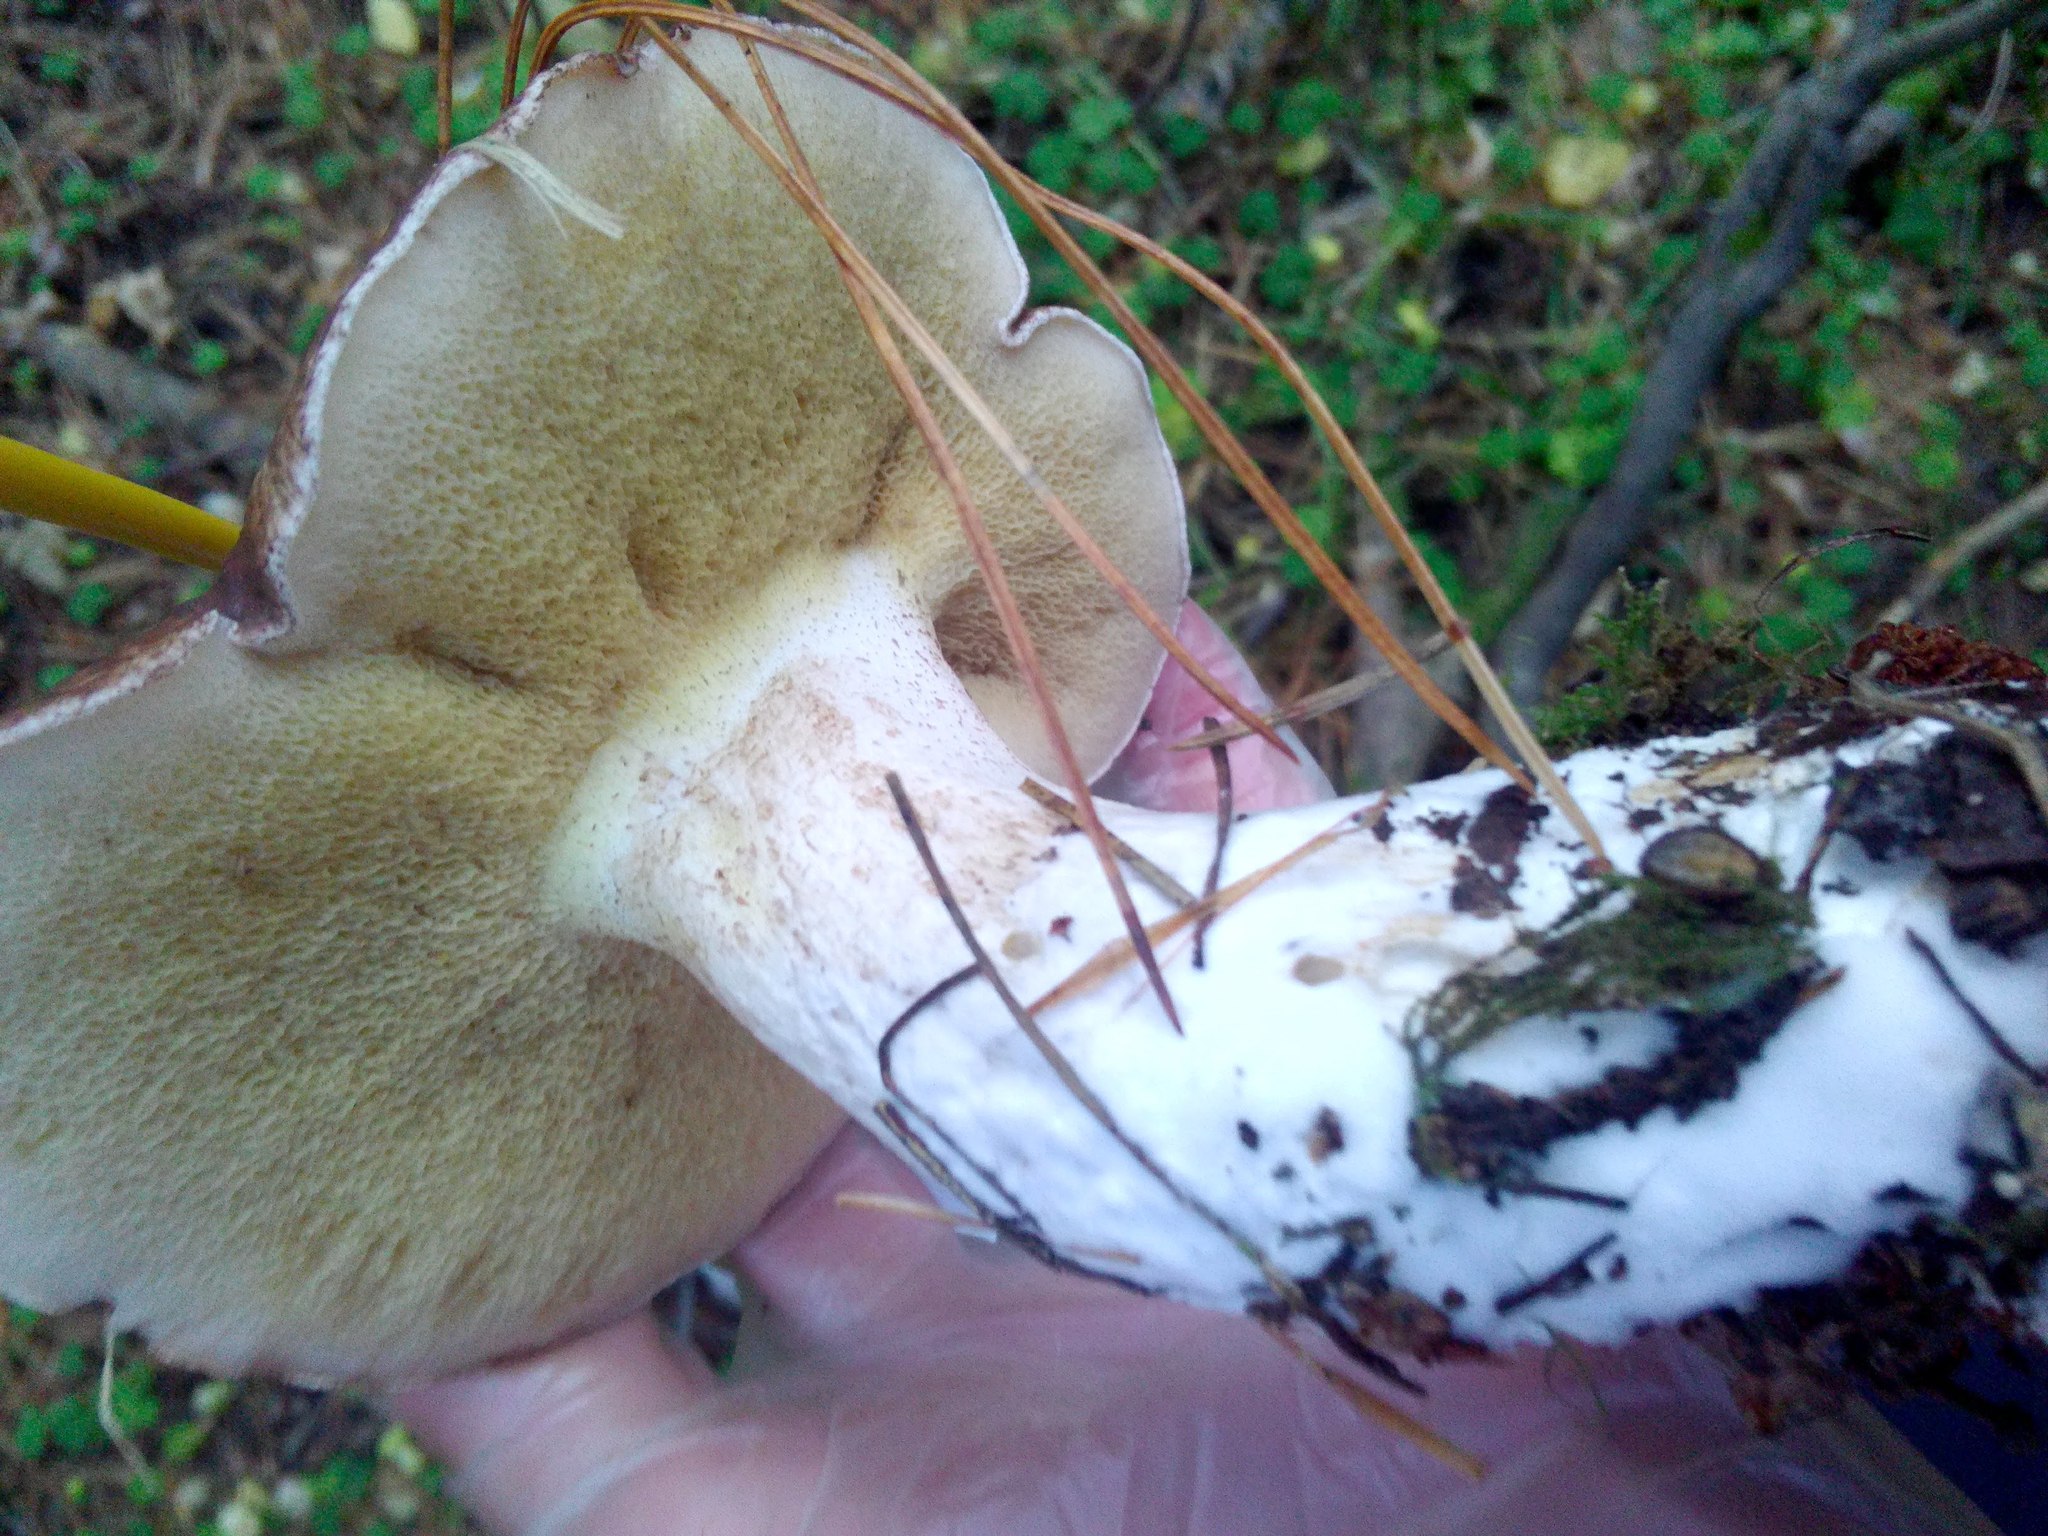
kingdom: Fungi
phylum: Basidiomycota
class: Agaricomycetes
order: Boletales
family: Suillaceae
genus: Suillus
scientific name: Suillus placidus
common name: Slippery white bolete
